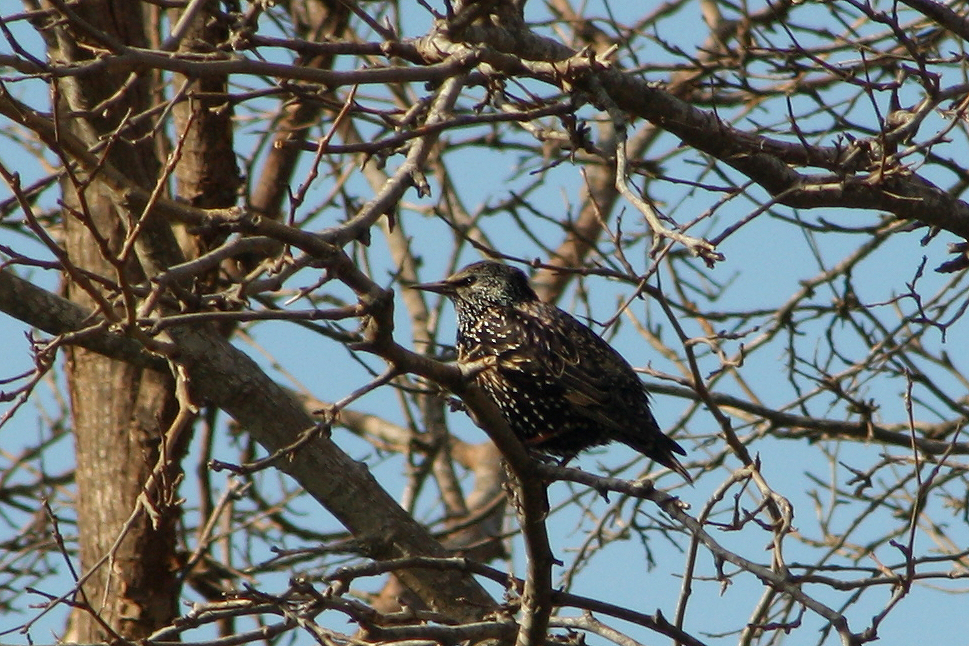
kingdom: Animalia
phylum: Chordata
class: Aves
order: Passeriformes
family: Sturnidae
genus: Sturnus
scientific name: Sturnus vulgaris
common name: Common starling
